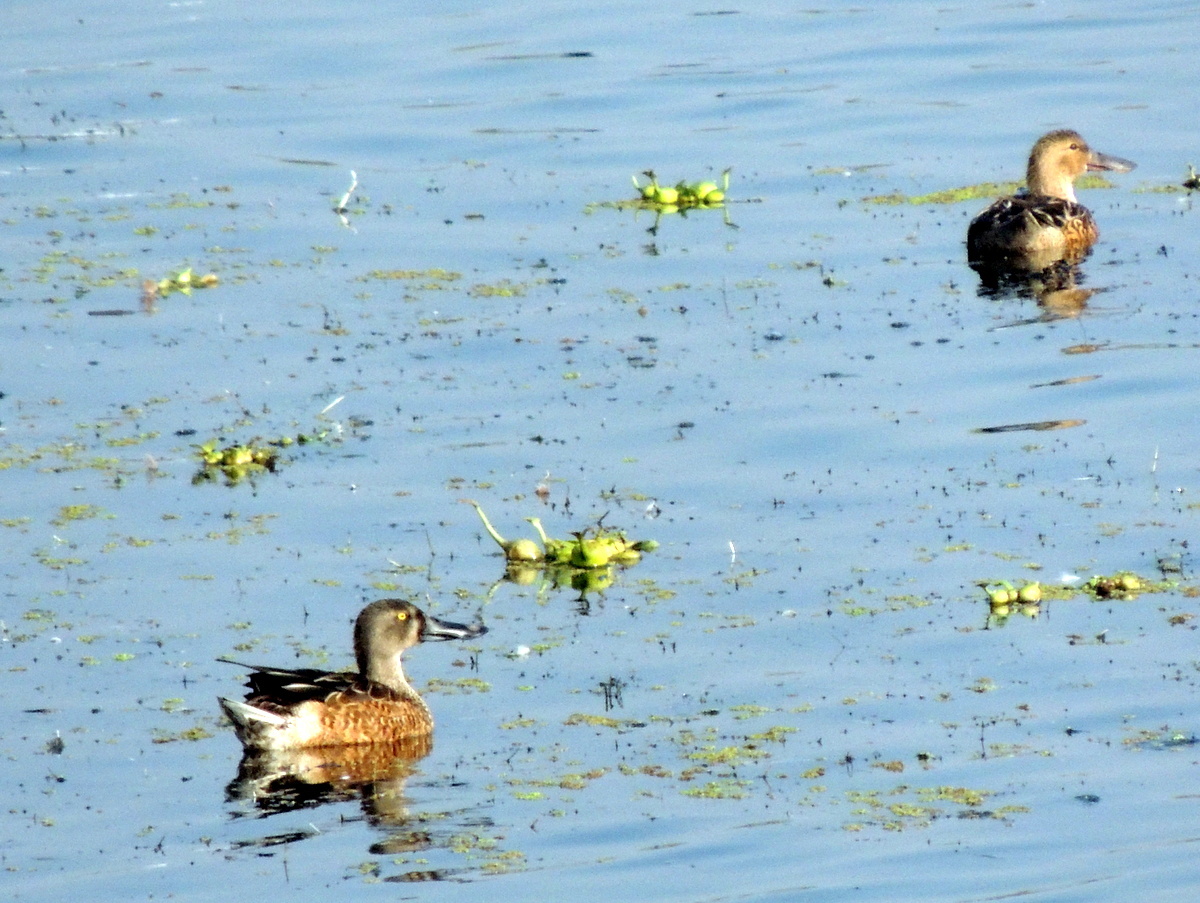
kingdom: Animalia
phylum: Chordata
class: Aves
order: Anseriformes
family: Anatidae
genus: Spatula
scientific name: Spatula clypeata
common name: Northern shoveler
